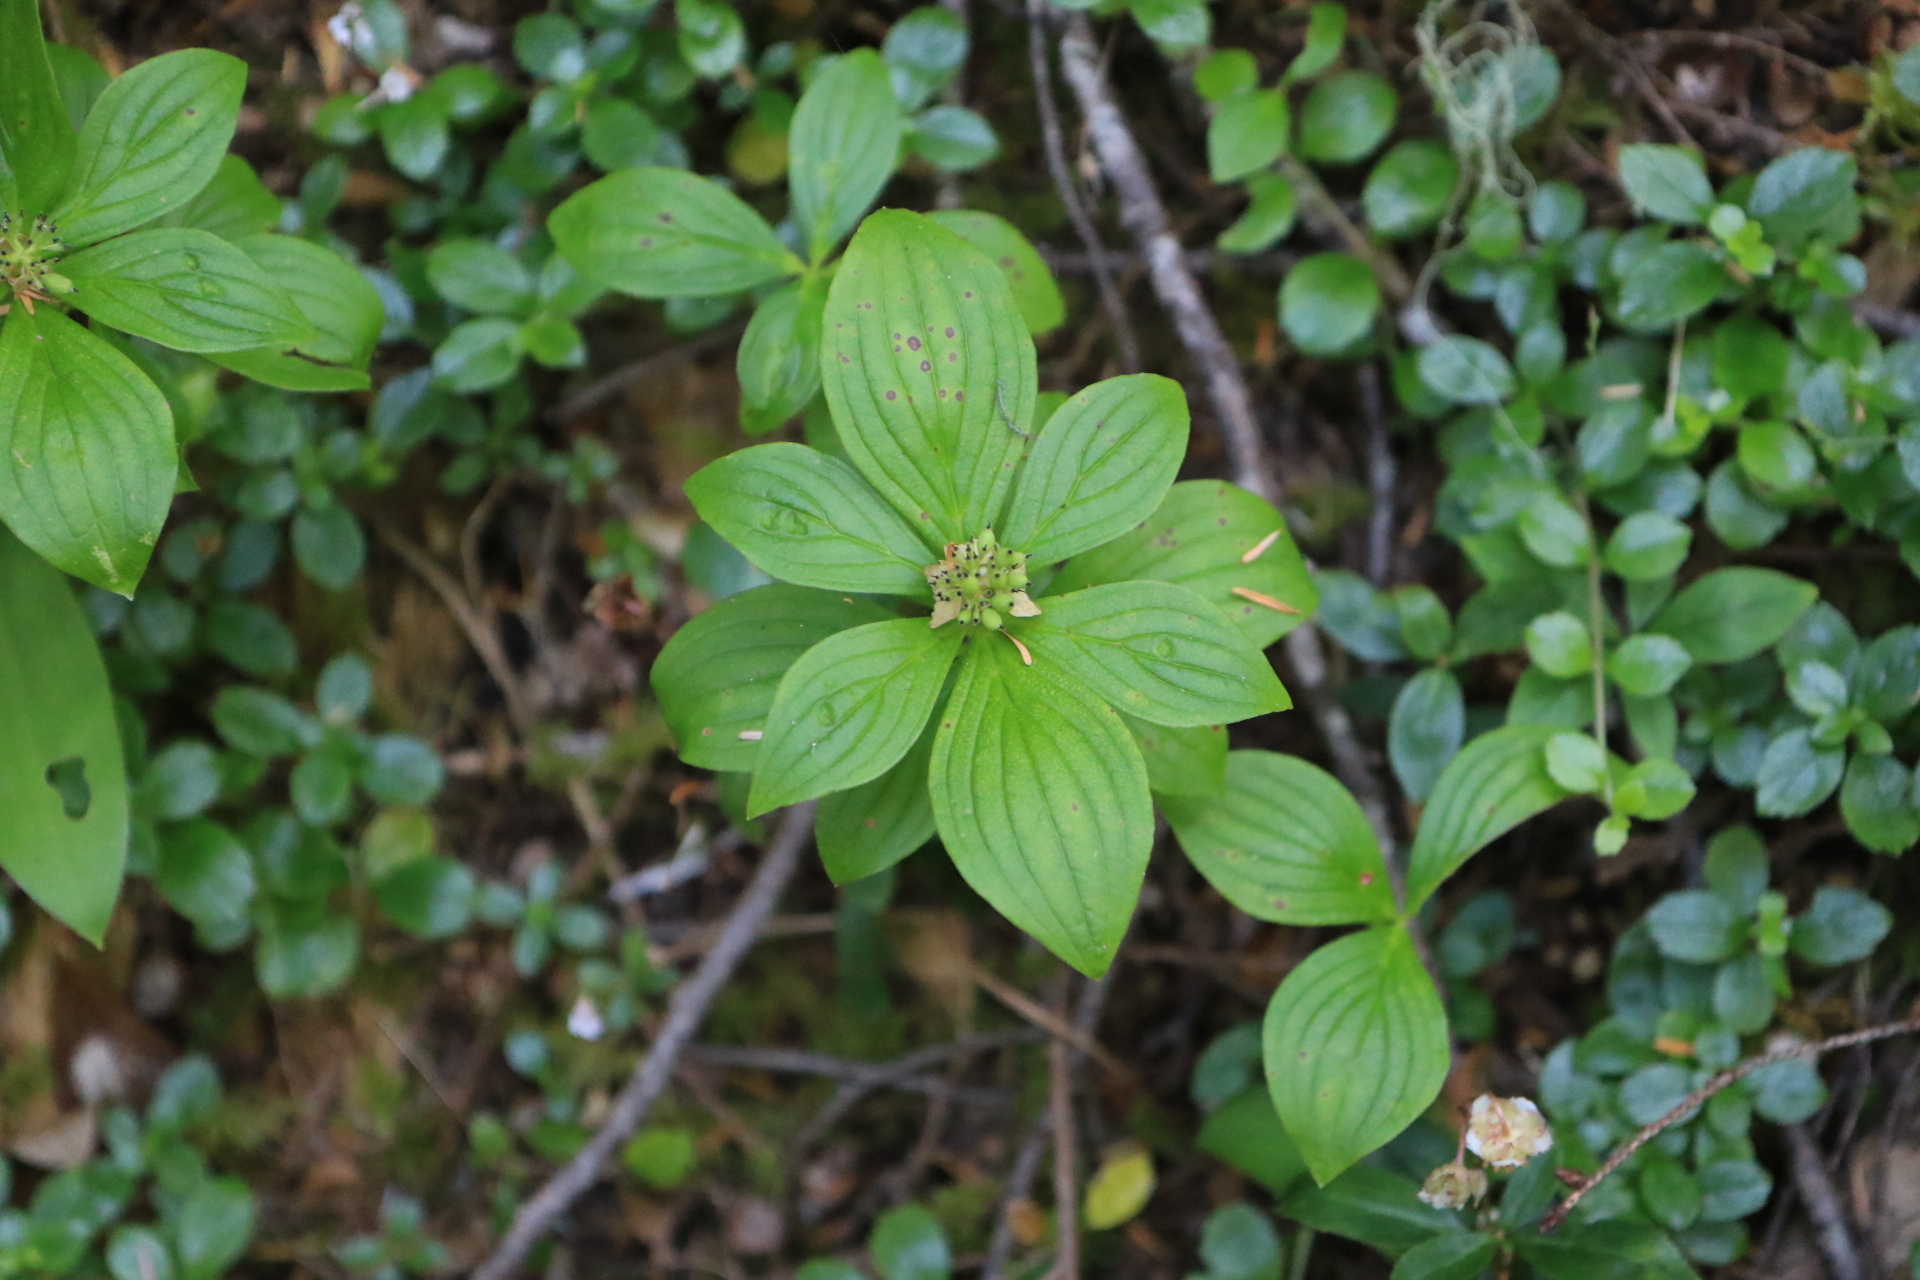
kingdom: Plantae
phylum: Tracheophyta
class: Magnoliopsida
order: Cornales
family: Cornaceae
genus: Cornus
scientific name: Cornus unalaschkensis
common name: Alaska bunchberry
